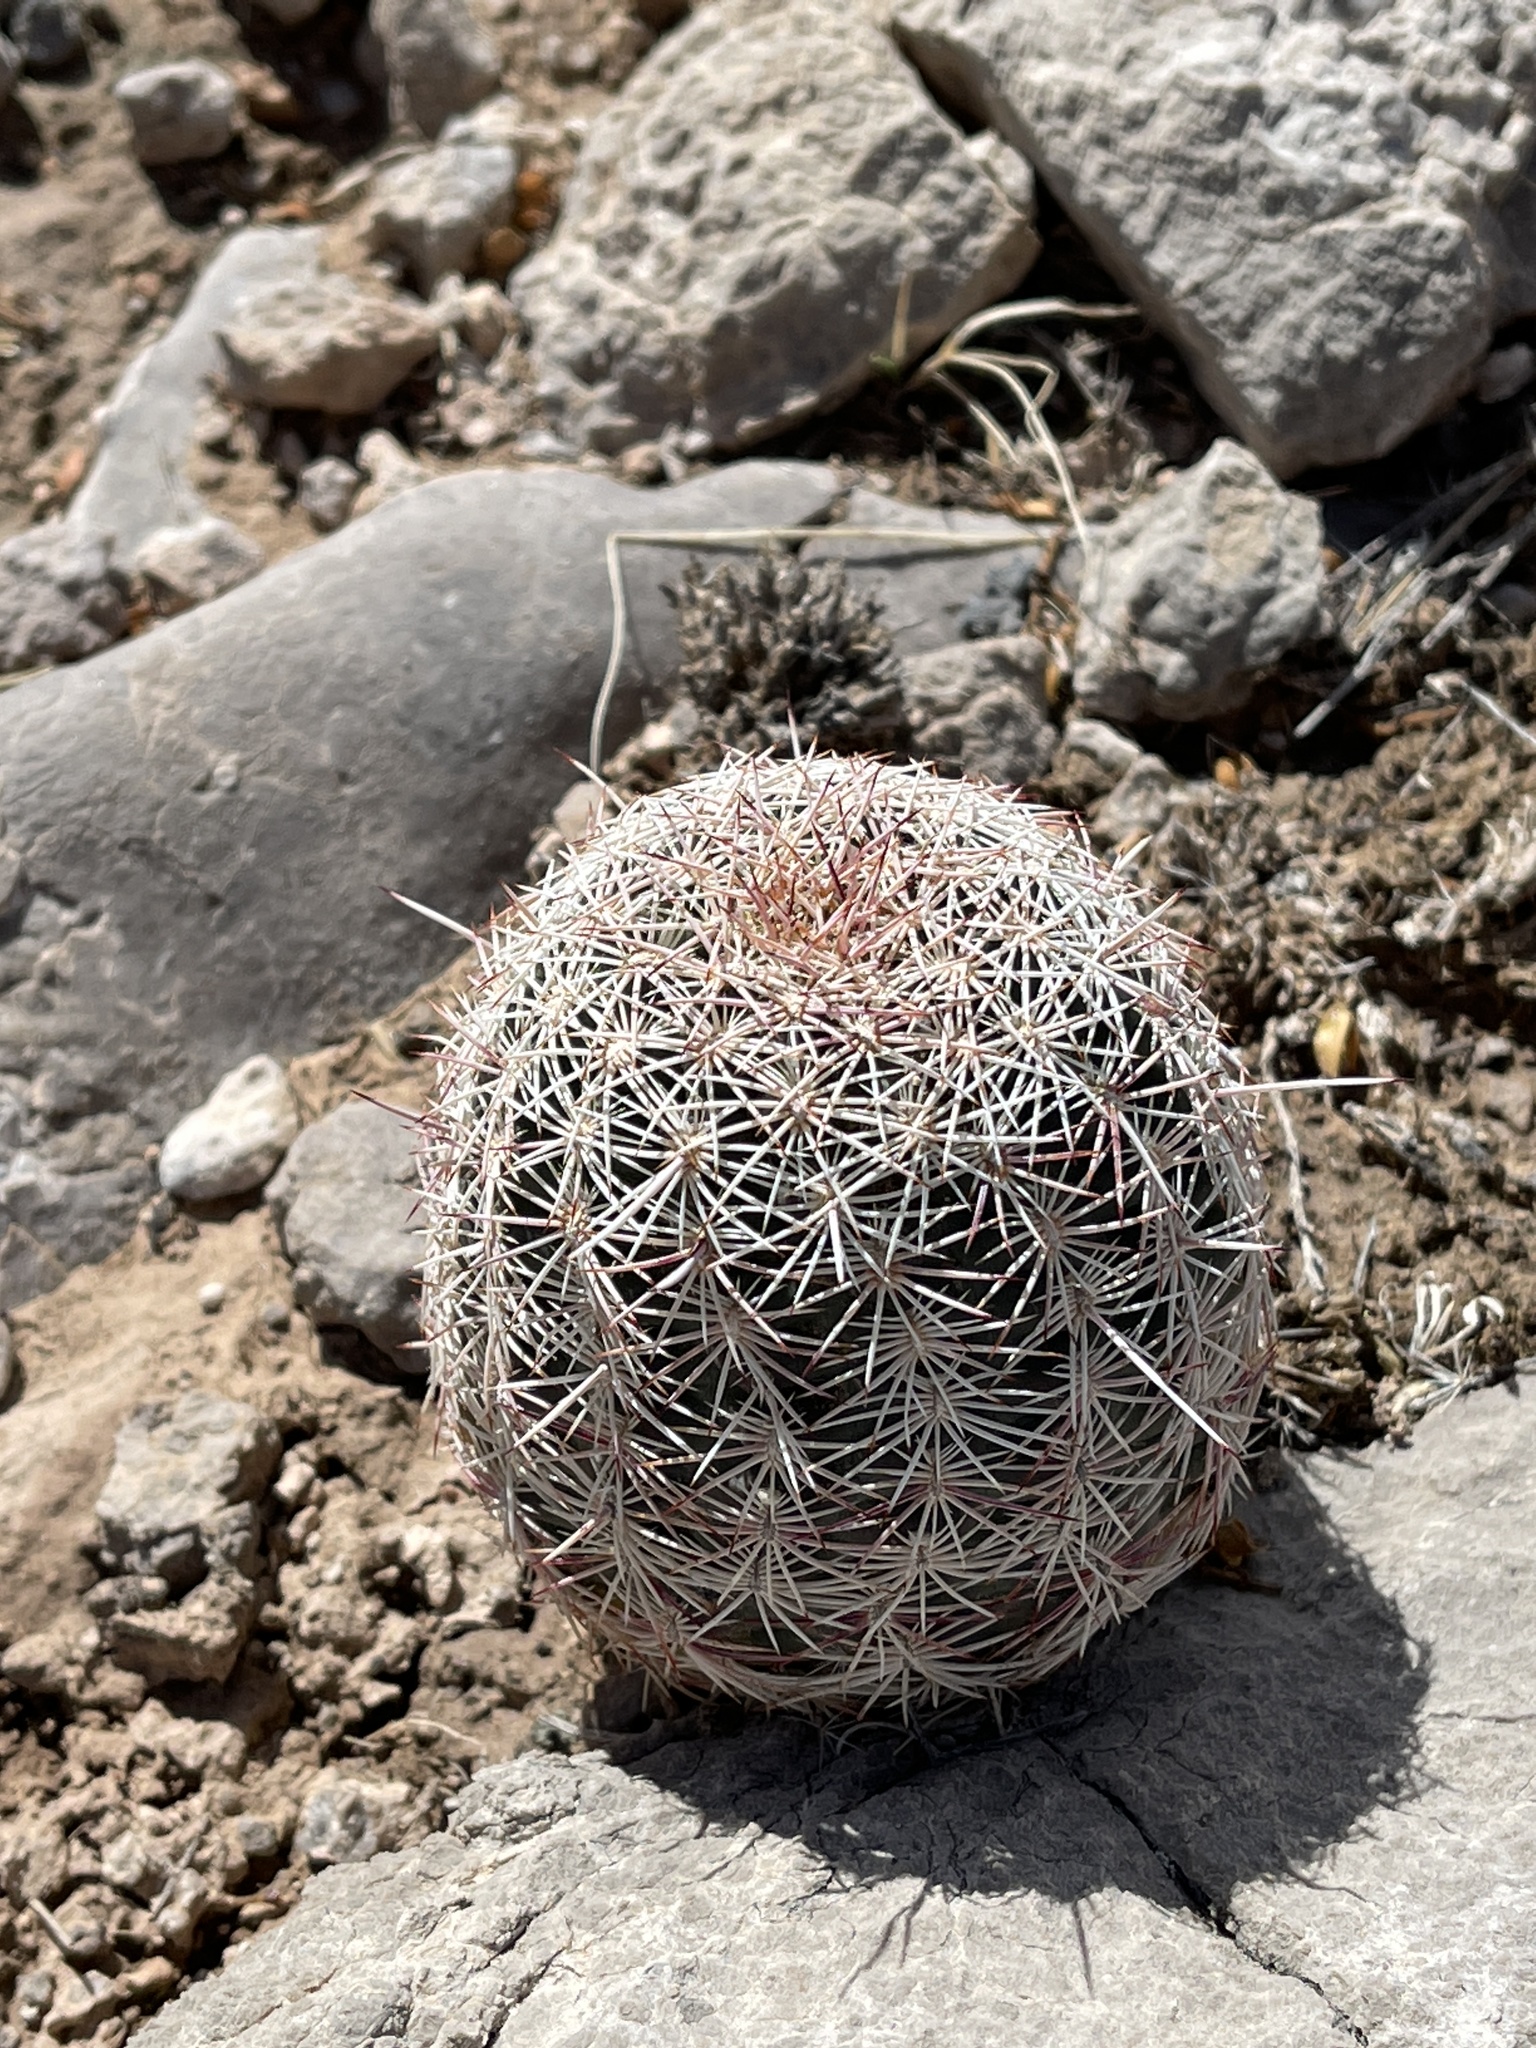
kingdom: Plantae
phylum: Tracheophyta
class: Magnoliopsida
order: Caryophyllales
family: Cactaceae
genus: Echinocereus
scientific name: Echinocereus viridiflorus
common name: Nylon hedgehog cactus
